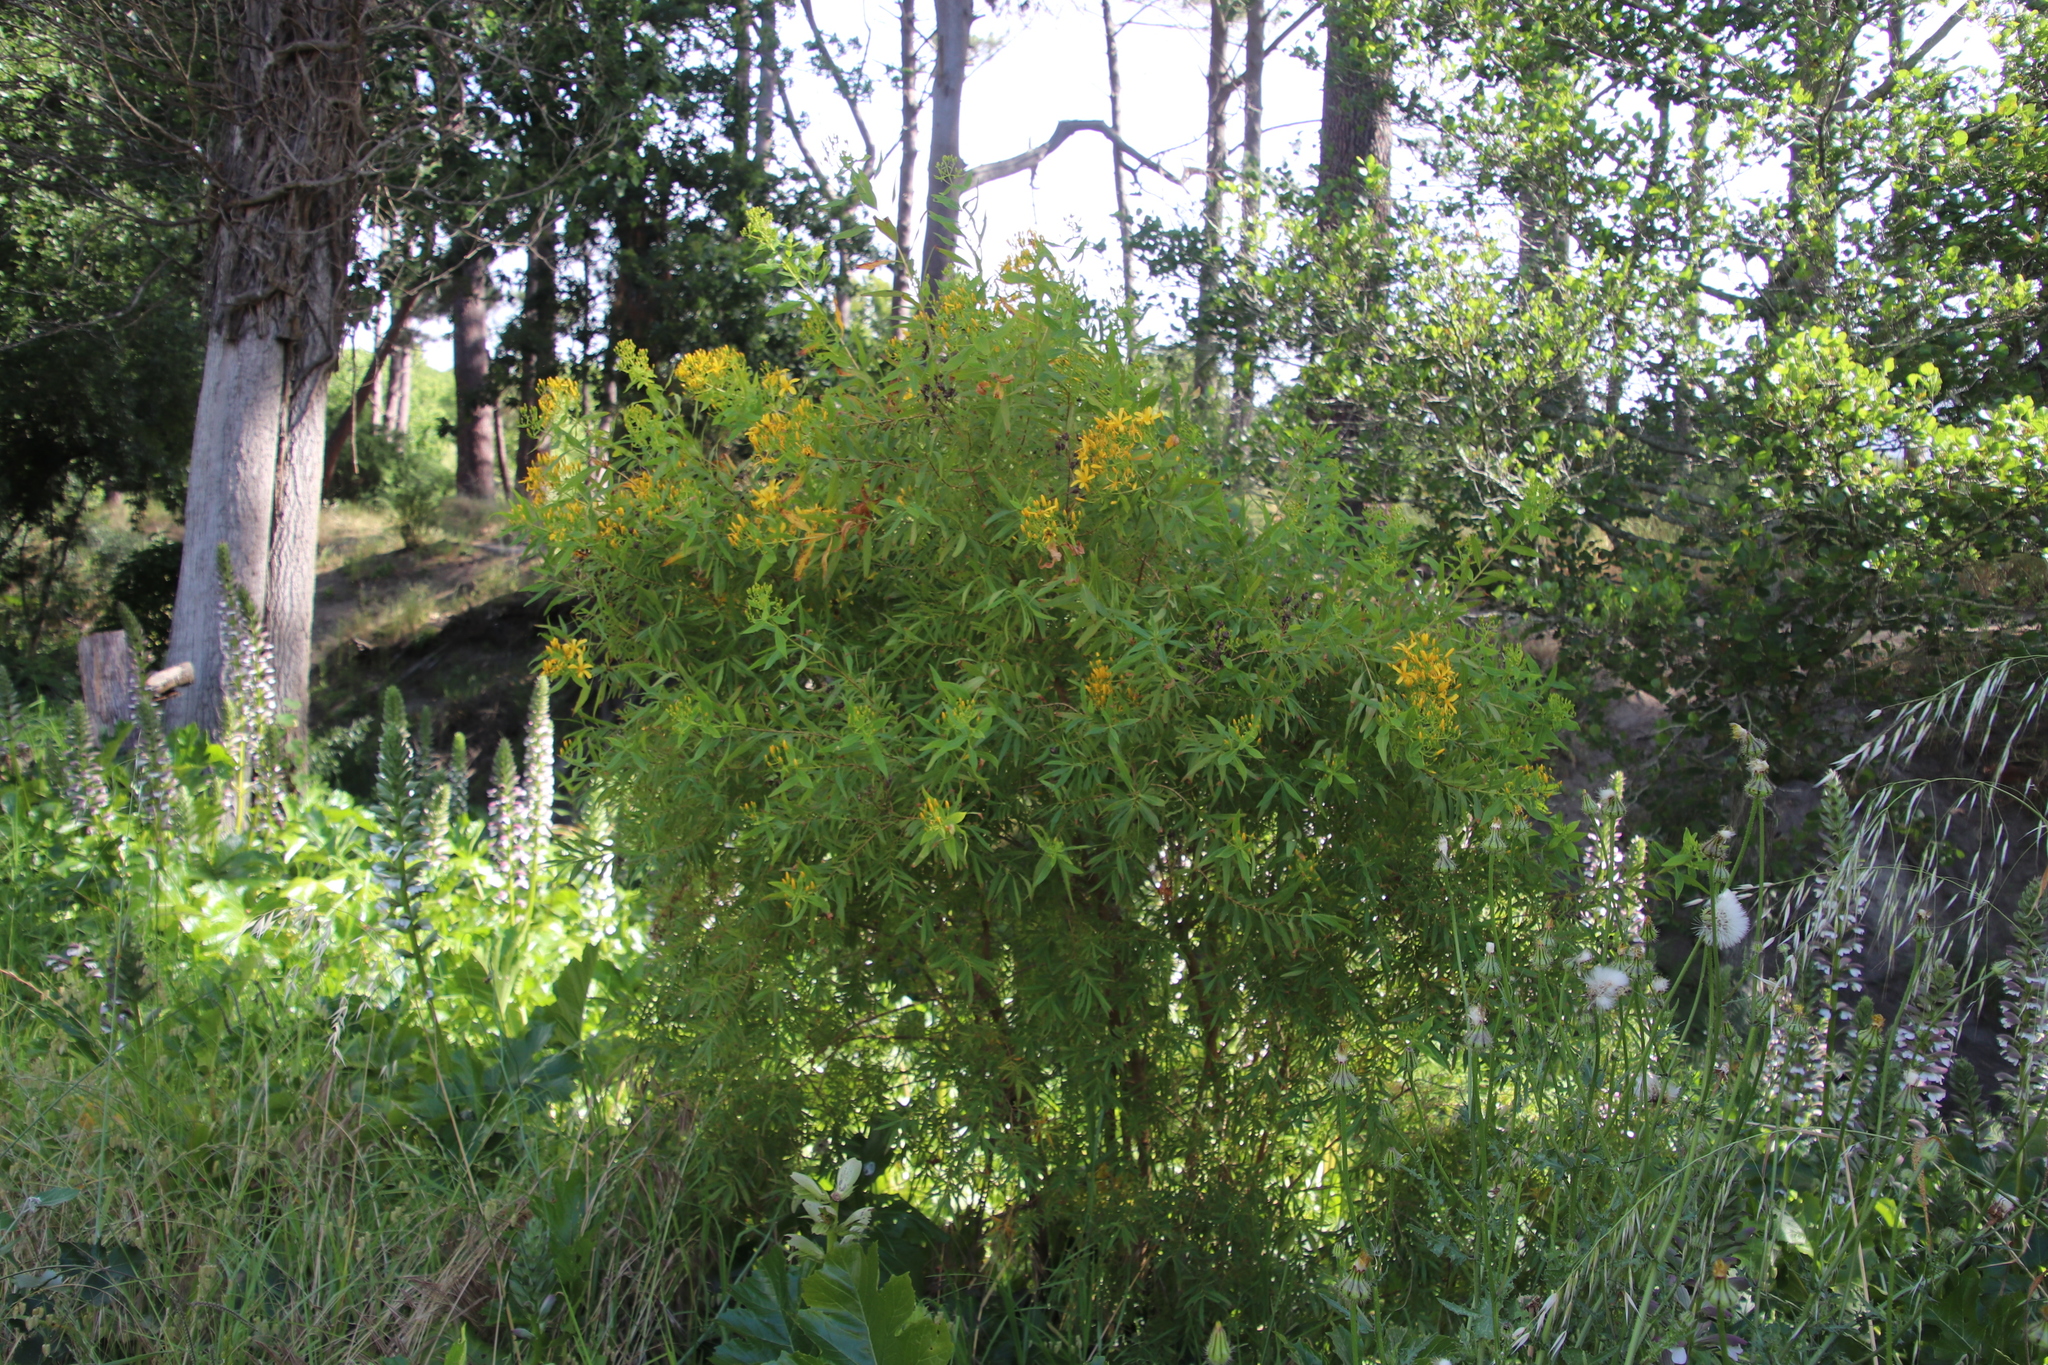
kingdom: Plantae
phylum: Tracheophyta
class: Magnoliopsida
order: Malpighiales
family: Hypericaceae
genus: Hypericum
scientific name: Hypericum canariense
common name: Canary island st. johnswort
